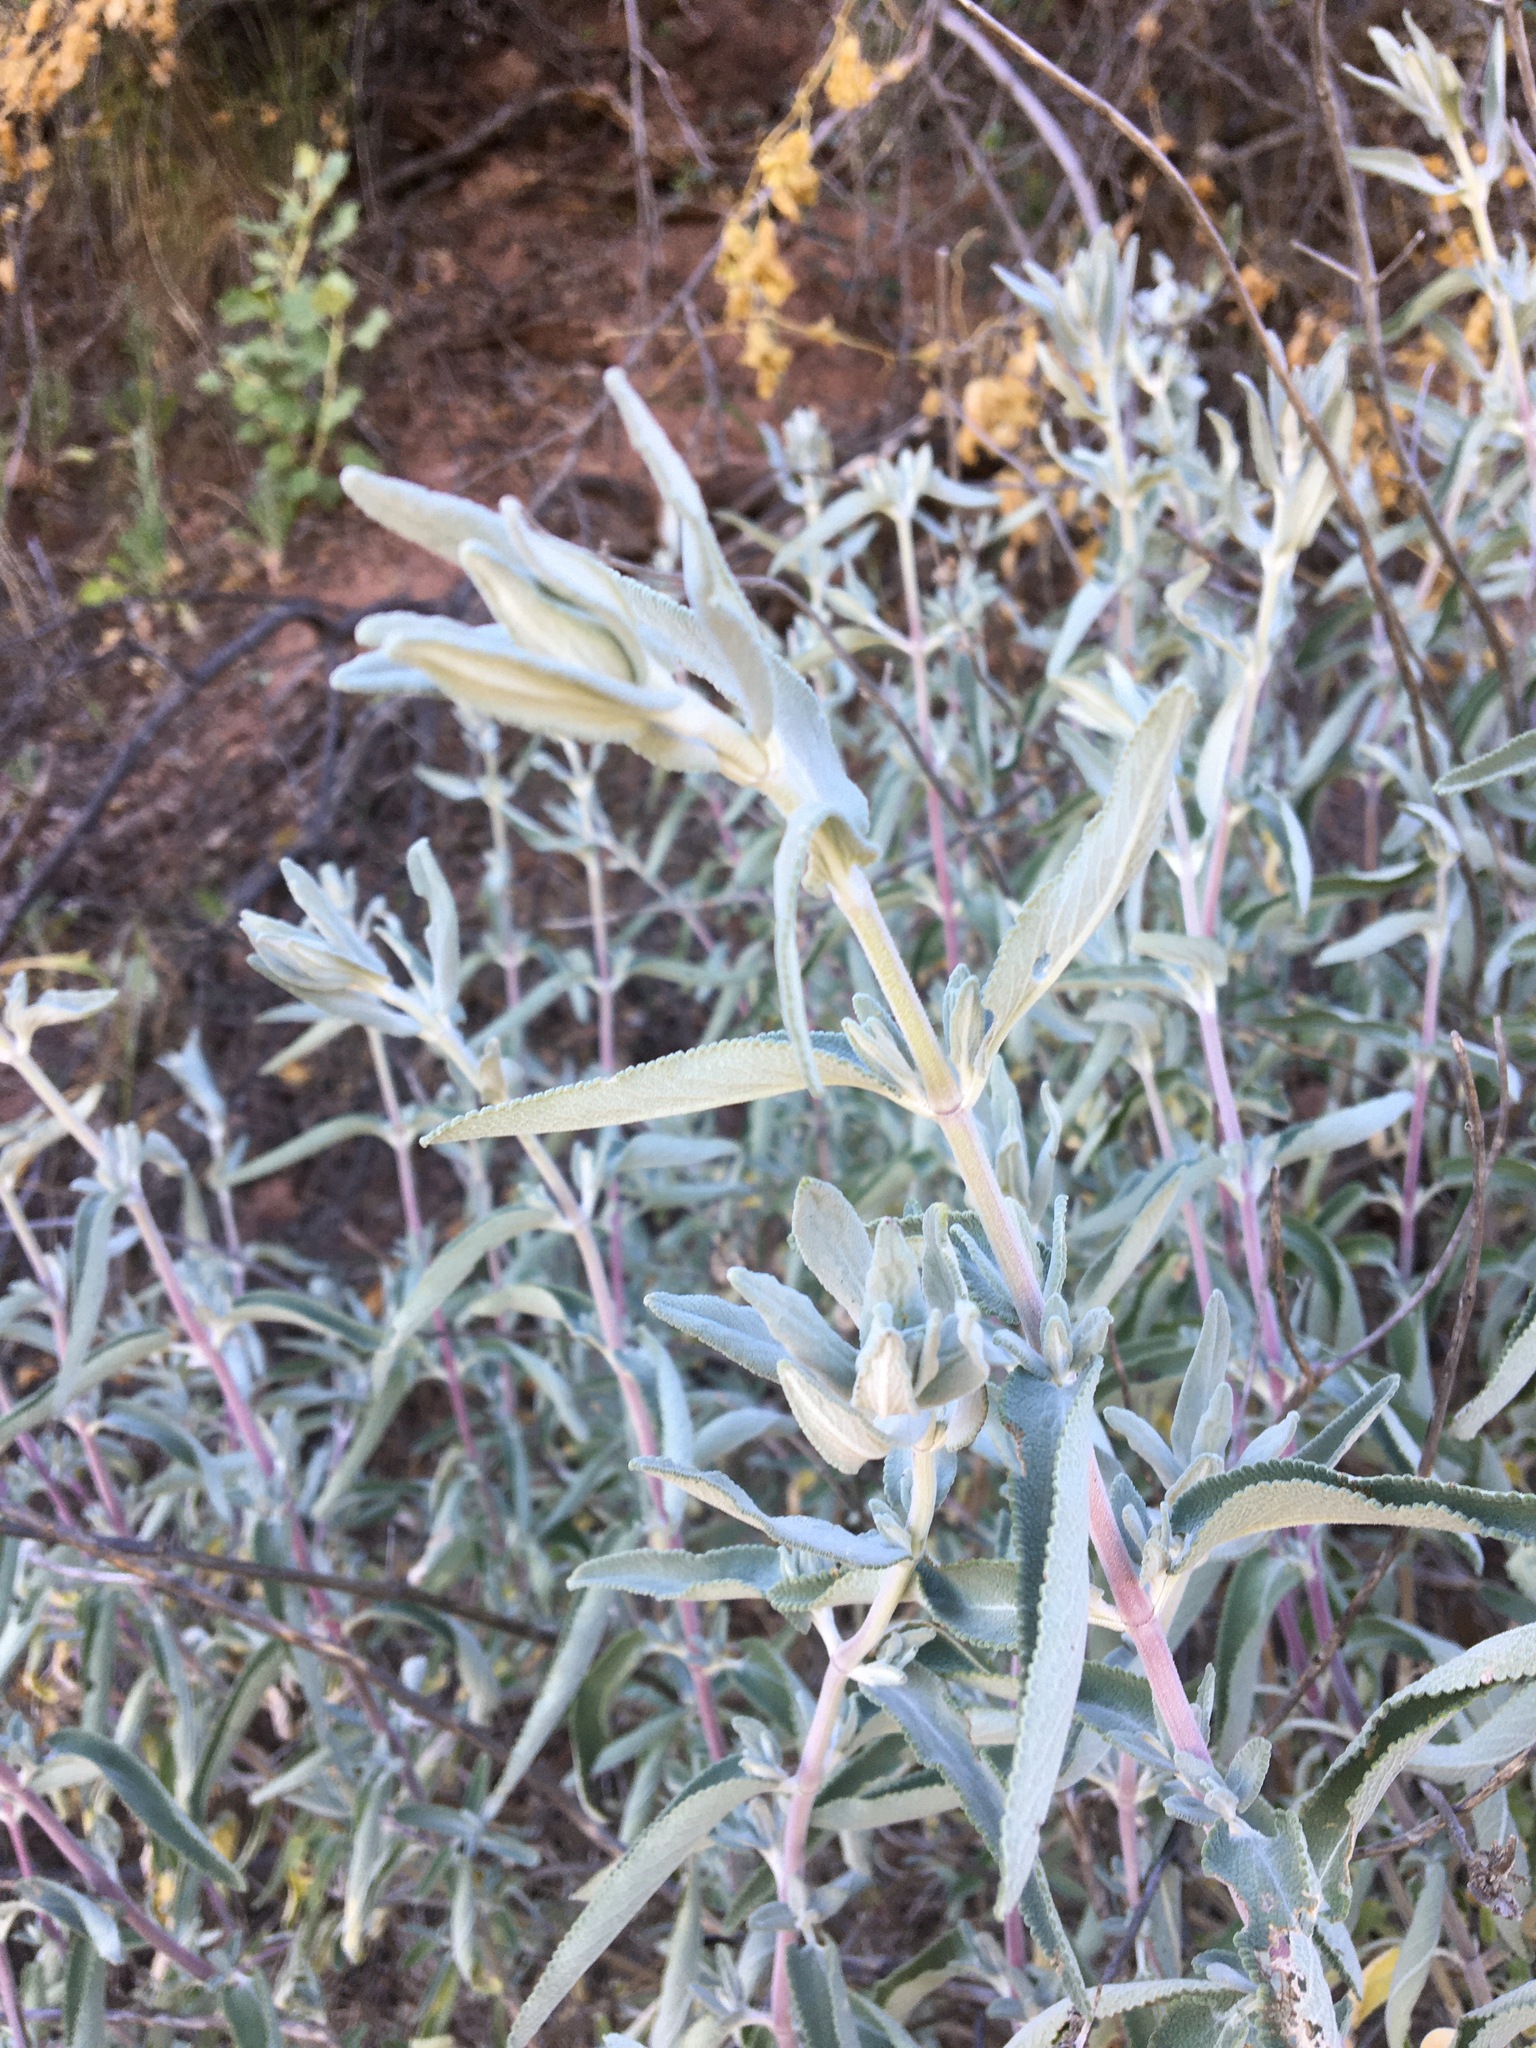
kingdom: Plantae
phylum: Tracheophyta
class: Magnoliopsida
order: Lamiales
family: Lamiaceae
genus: Salvia
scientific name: Salvia leucophylla
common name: Purple sage
